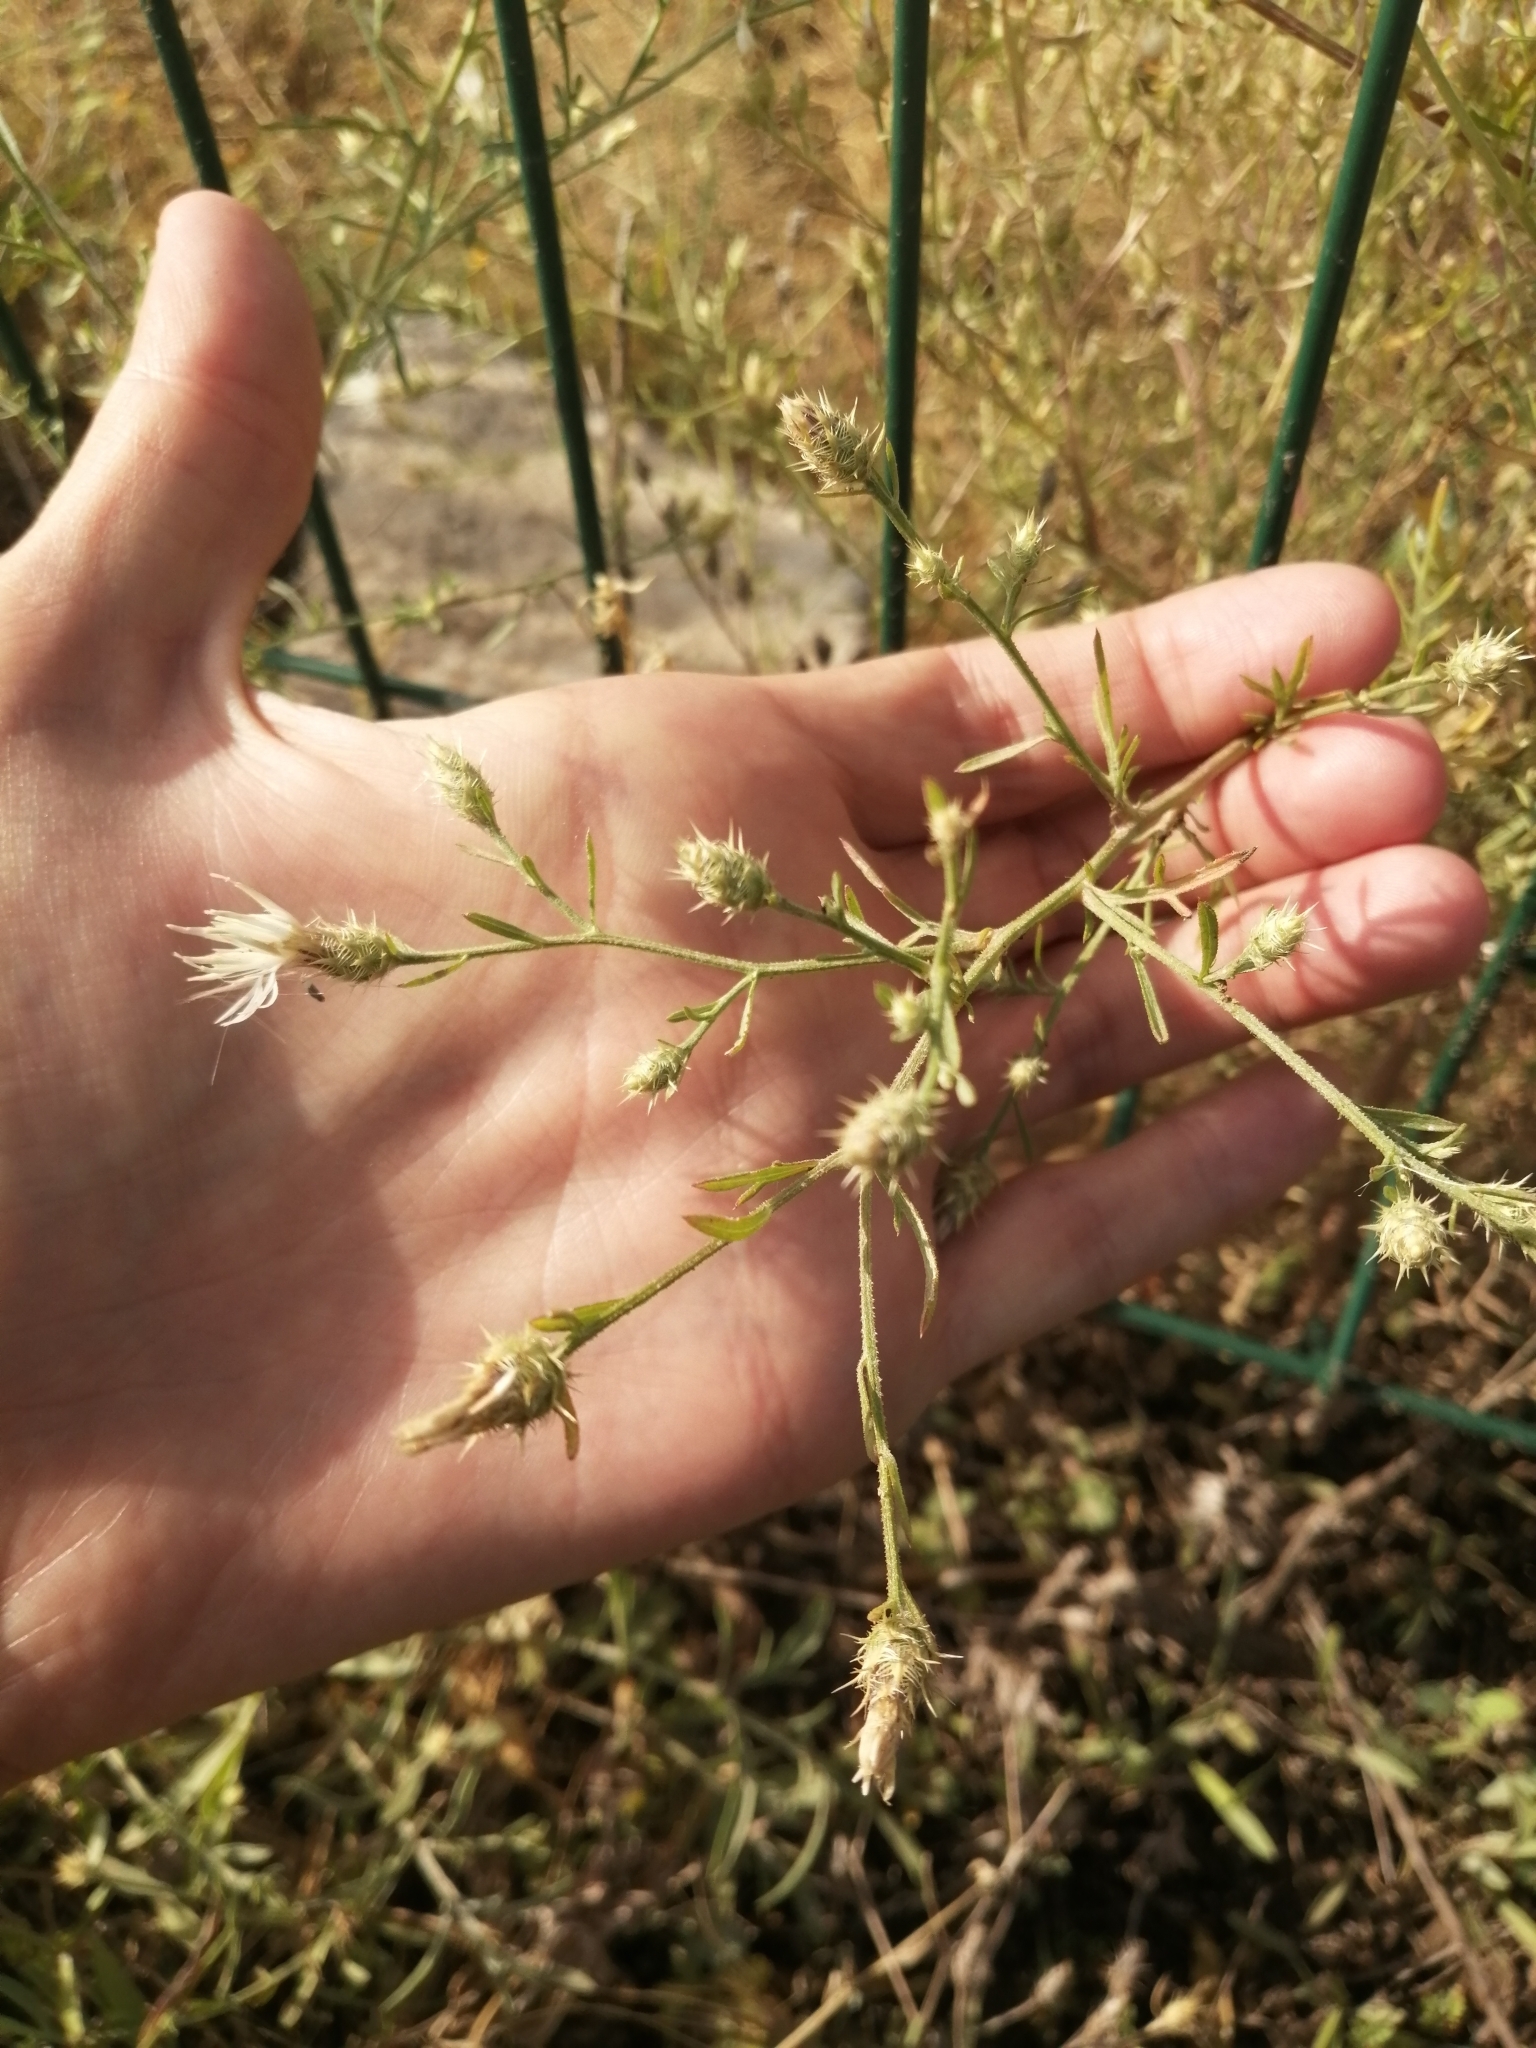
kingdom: Plantae
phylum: Tracheophyta
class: Magnoliopsida
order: Asterales
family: Asteraceae
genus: Centaurea
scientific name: Centaurea diffusa
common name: Diffuse knapweed
